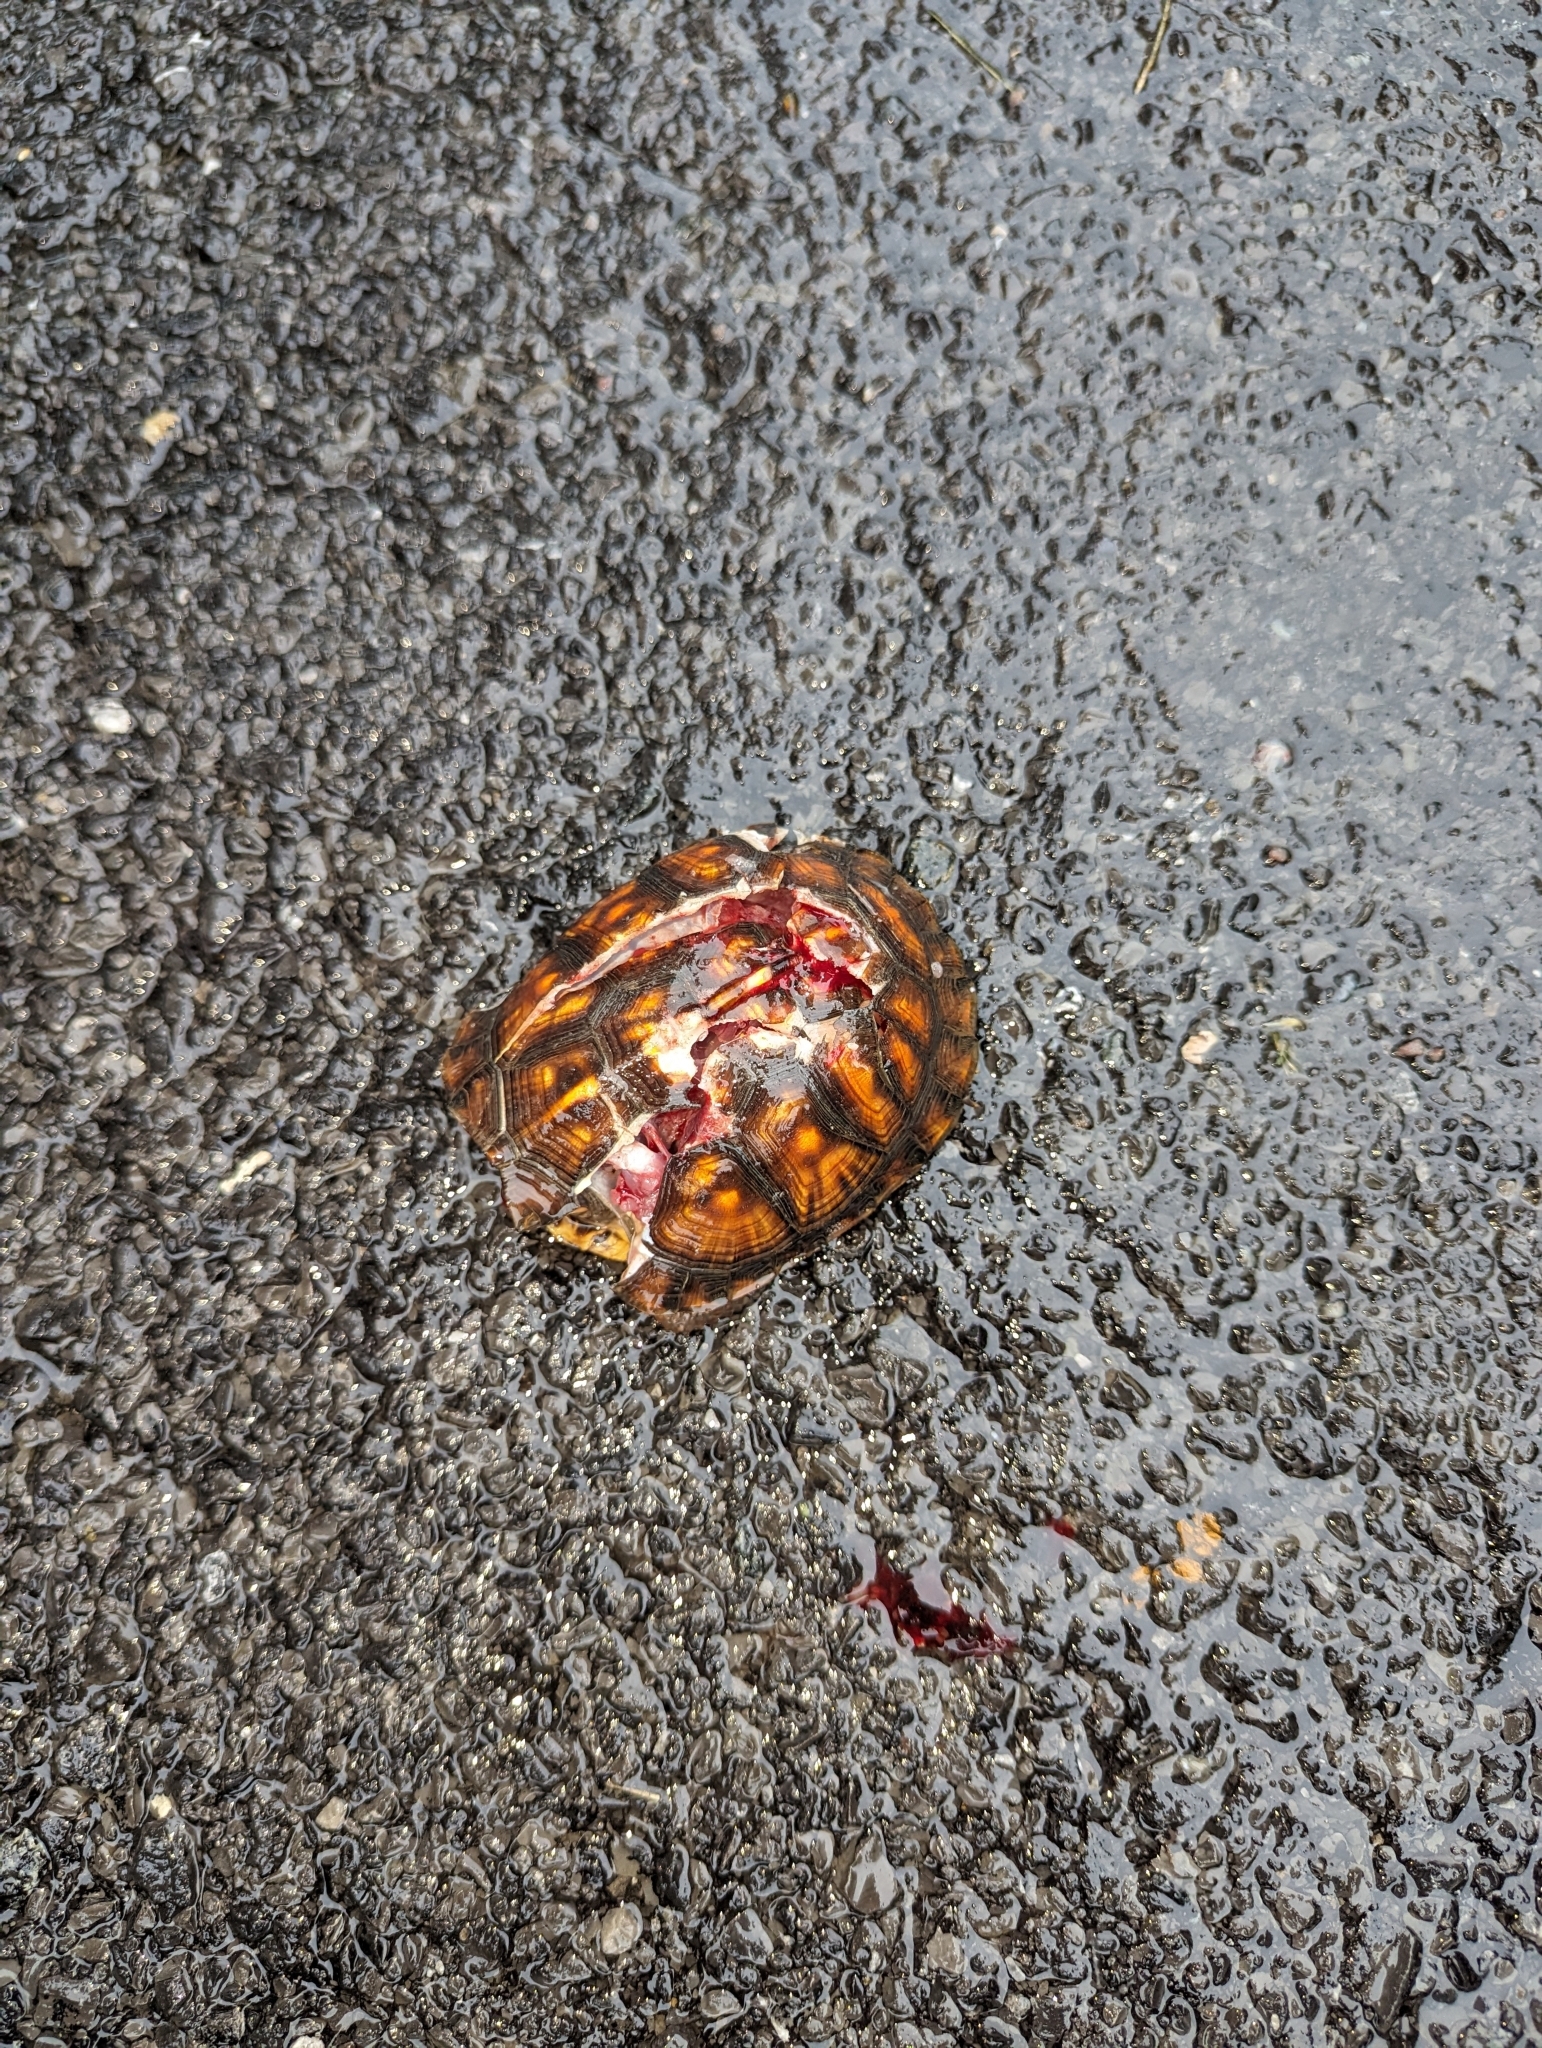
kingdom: Animalia
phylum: Chordata
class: Testudines
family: Emydidae
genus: Terrapene
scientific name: Terrapene carolina
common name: Common box turtle
